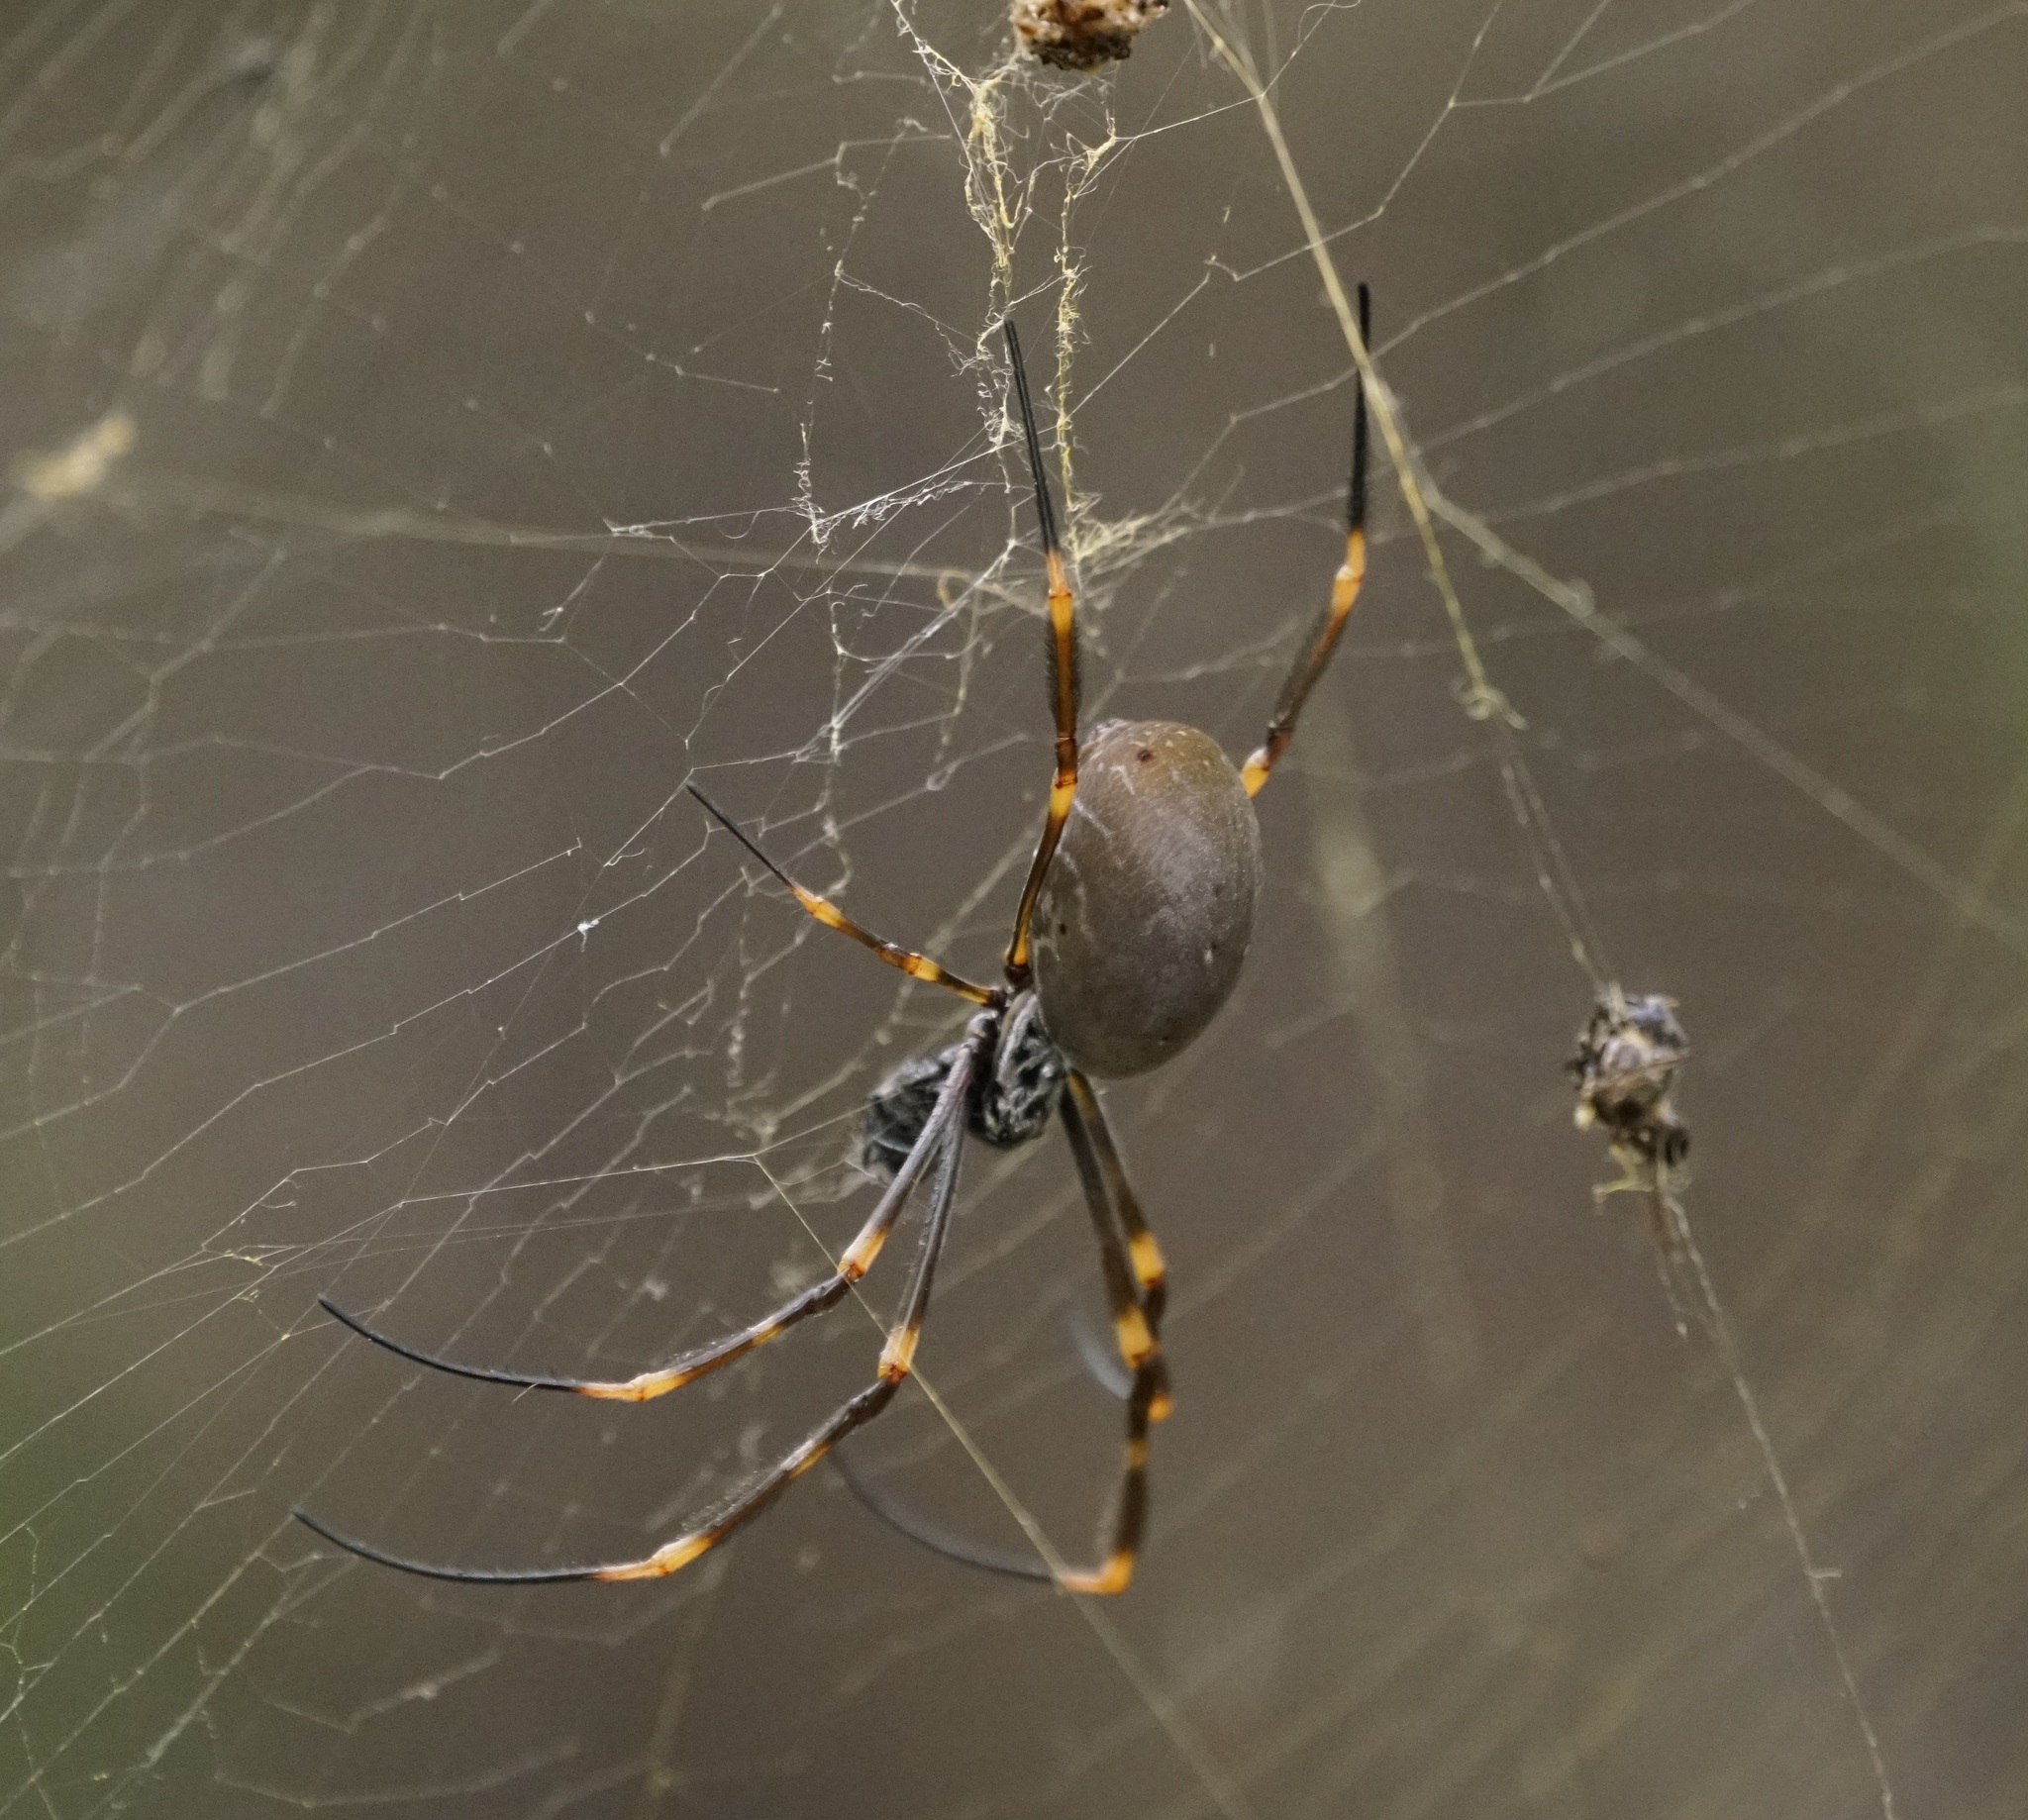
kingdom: Animalia
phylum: Arthropoda
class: Arachnida
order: Araneae
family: Araneidae
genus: Trichonephila
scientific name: Trichonephila plumipes
